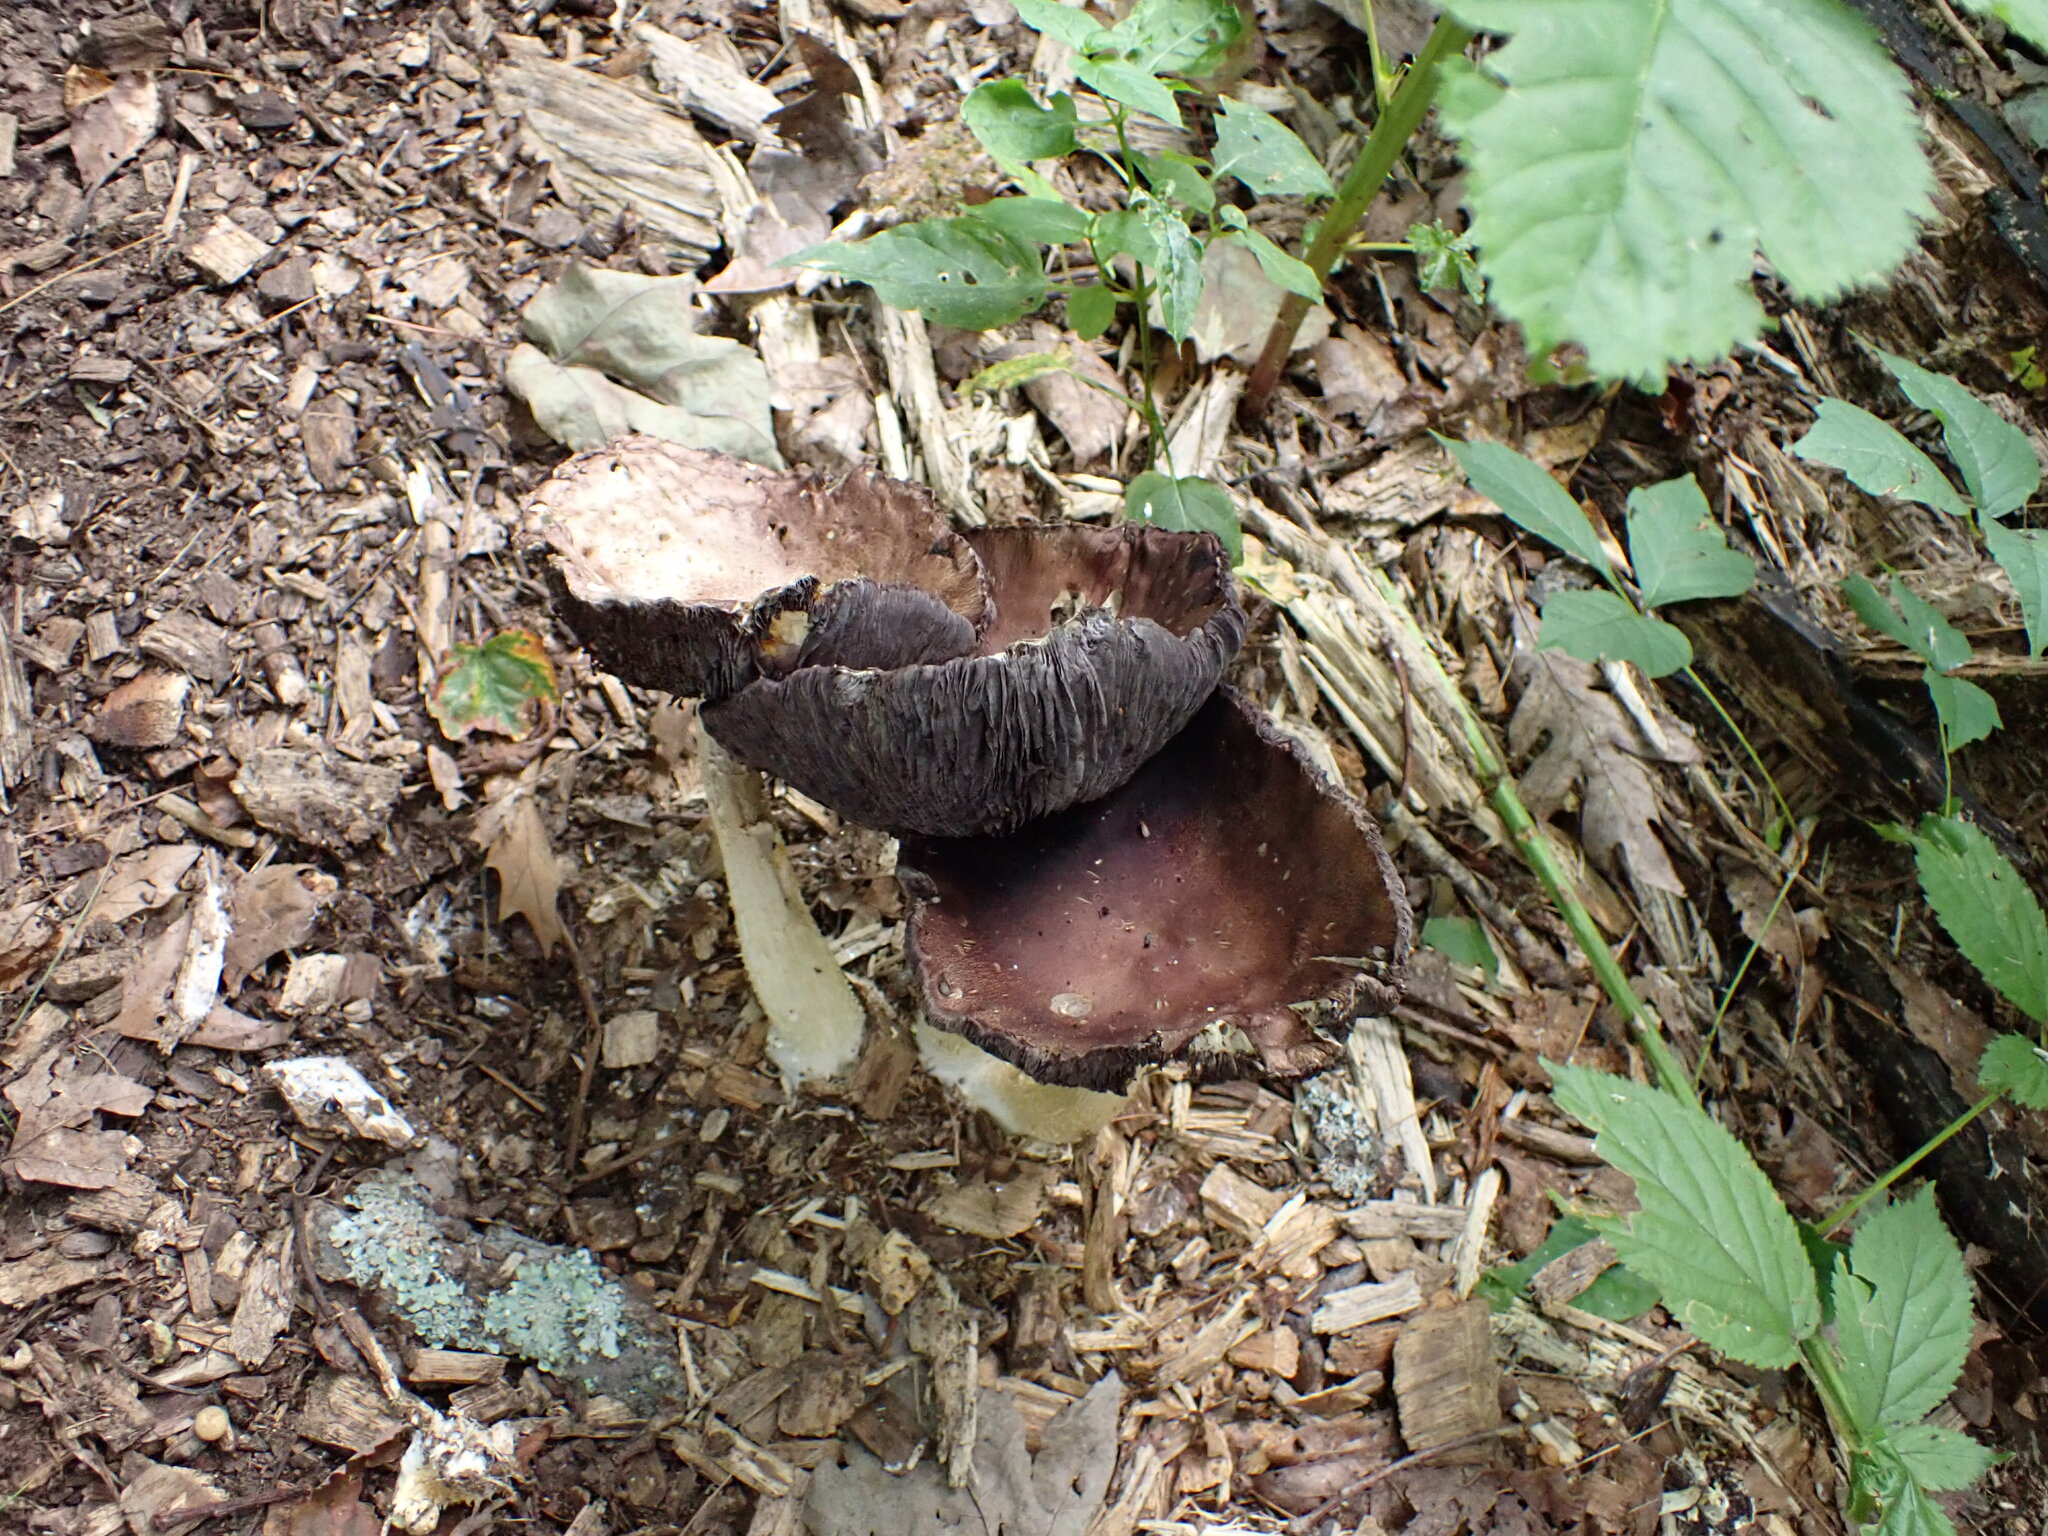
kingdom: Fungi
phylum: Basidiomycota
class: Agaricomycetes
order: Agaricales
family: Strophariaceae
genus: Stropharia
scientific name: Stropharia rugosoannulata
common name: Wine roundhead
